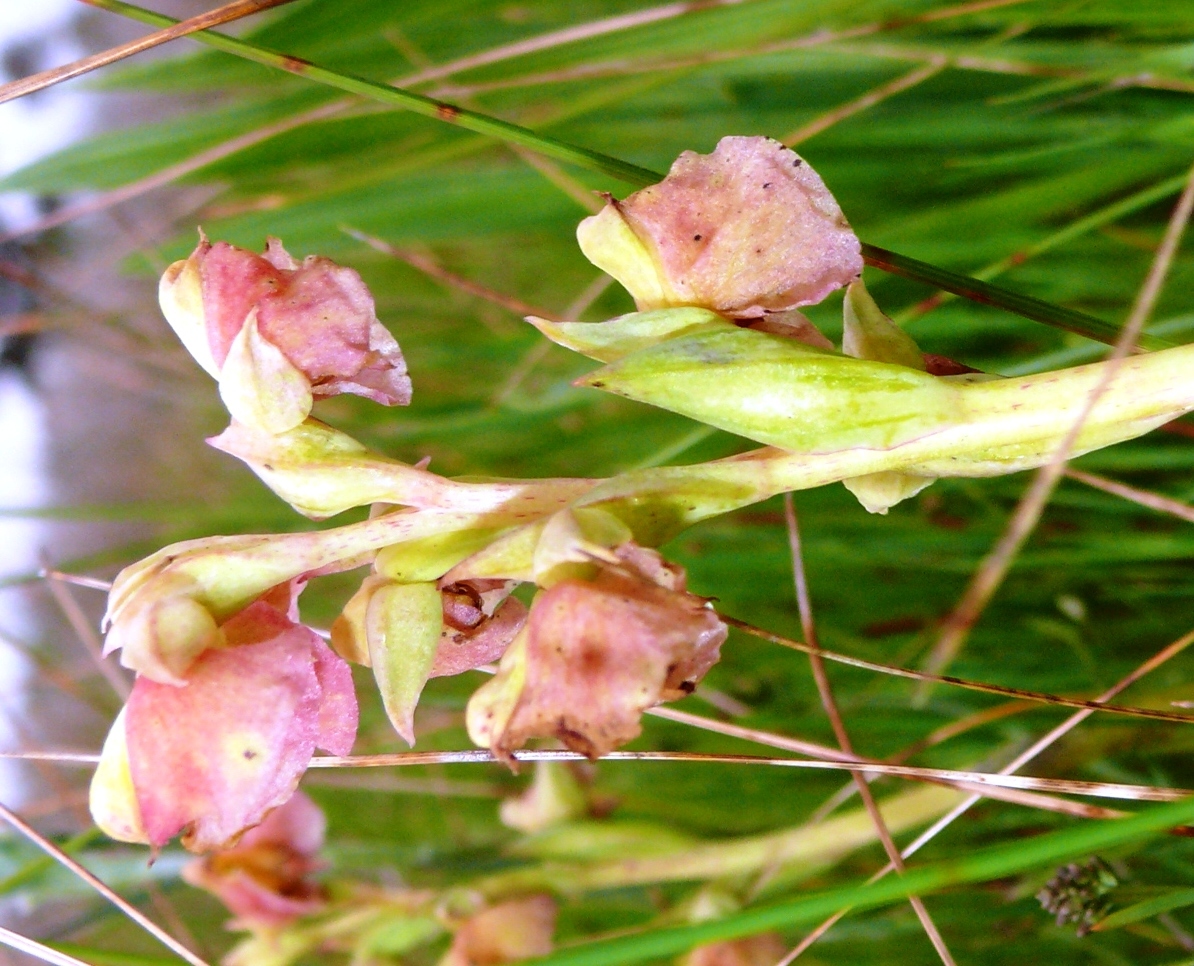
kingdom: Plantae
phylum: Tracheophyta
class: Liliopsida
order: Asparagales
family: Orchidaceae
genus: Pterygodium
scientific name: Pterygodium catholicum
